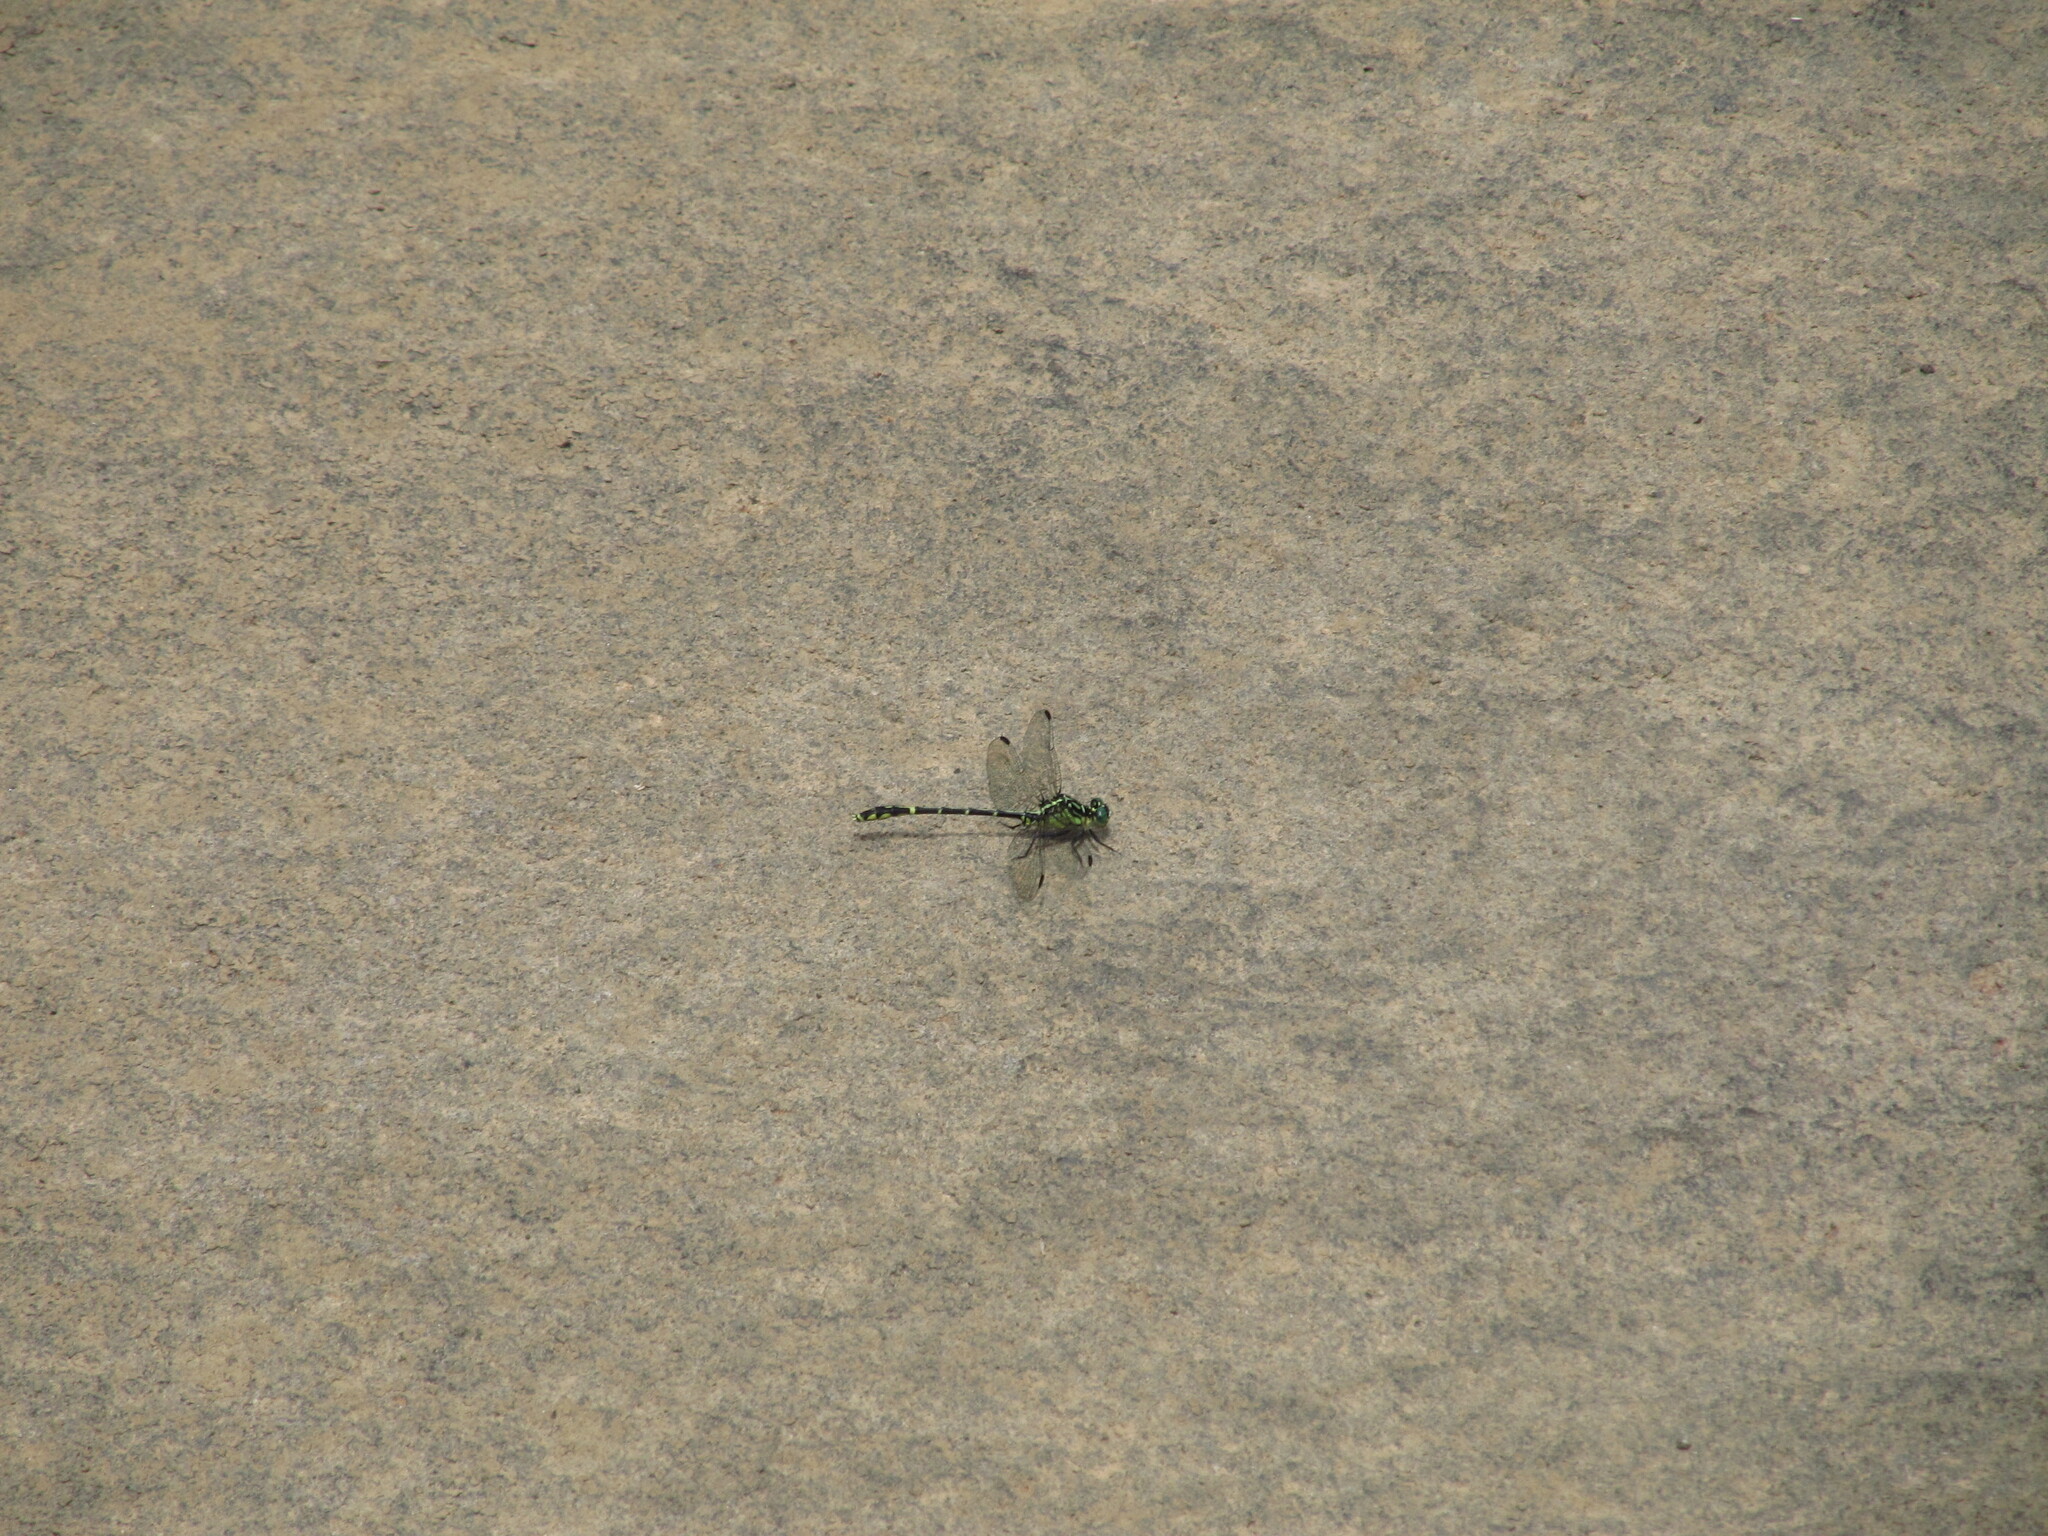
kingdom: Animalia
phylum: Arthropoda
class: Insecta
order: Odonata
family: Gomphidae
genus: Austrogomphus
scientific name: Austrogomphus ochraceus
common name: Jade hunter
